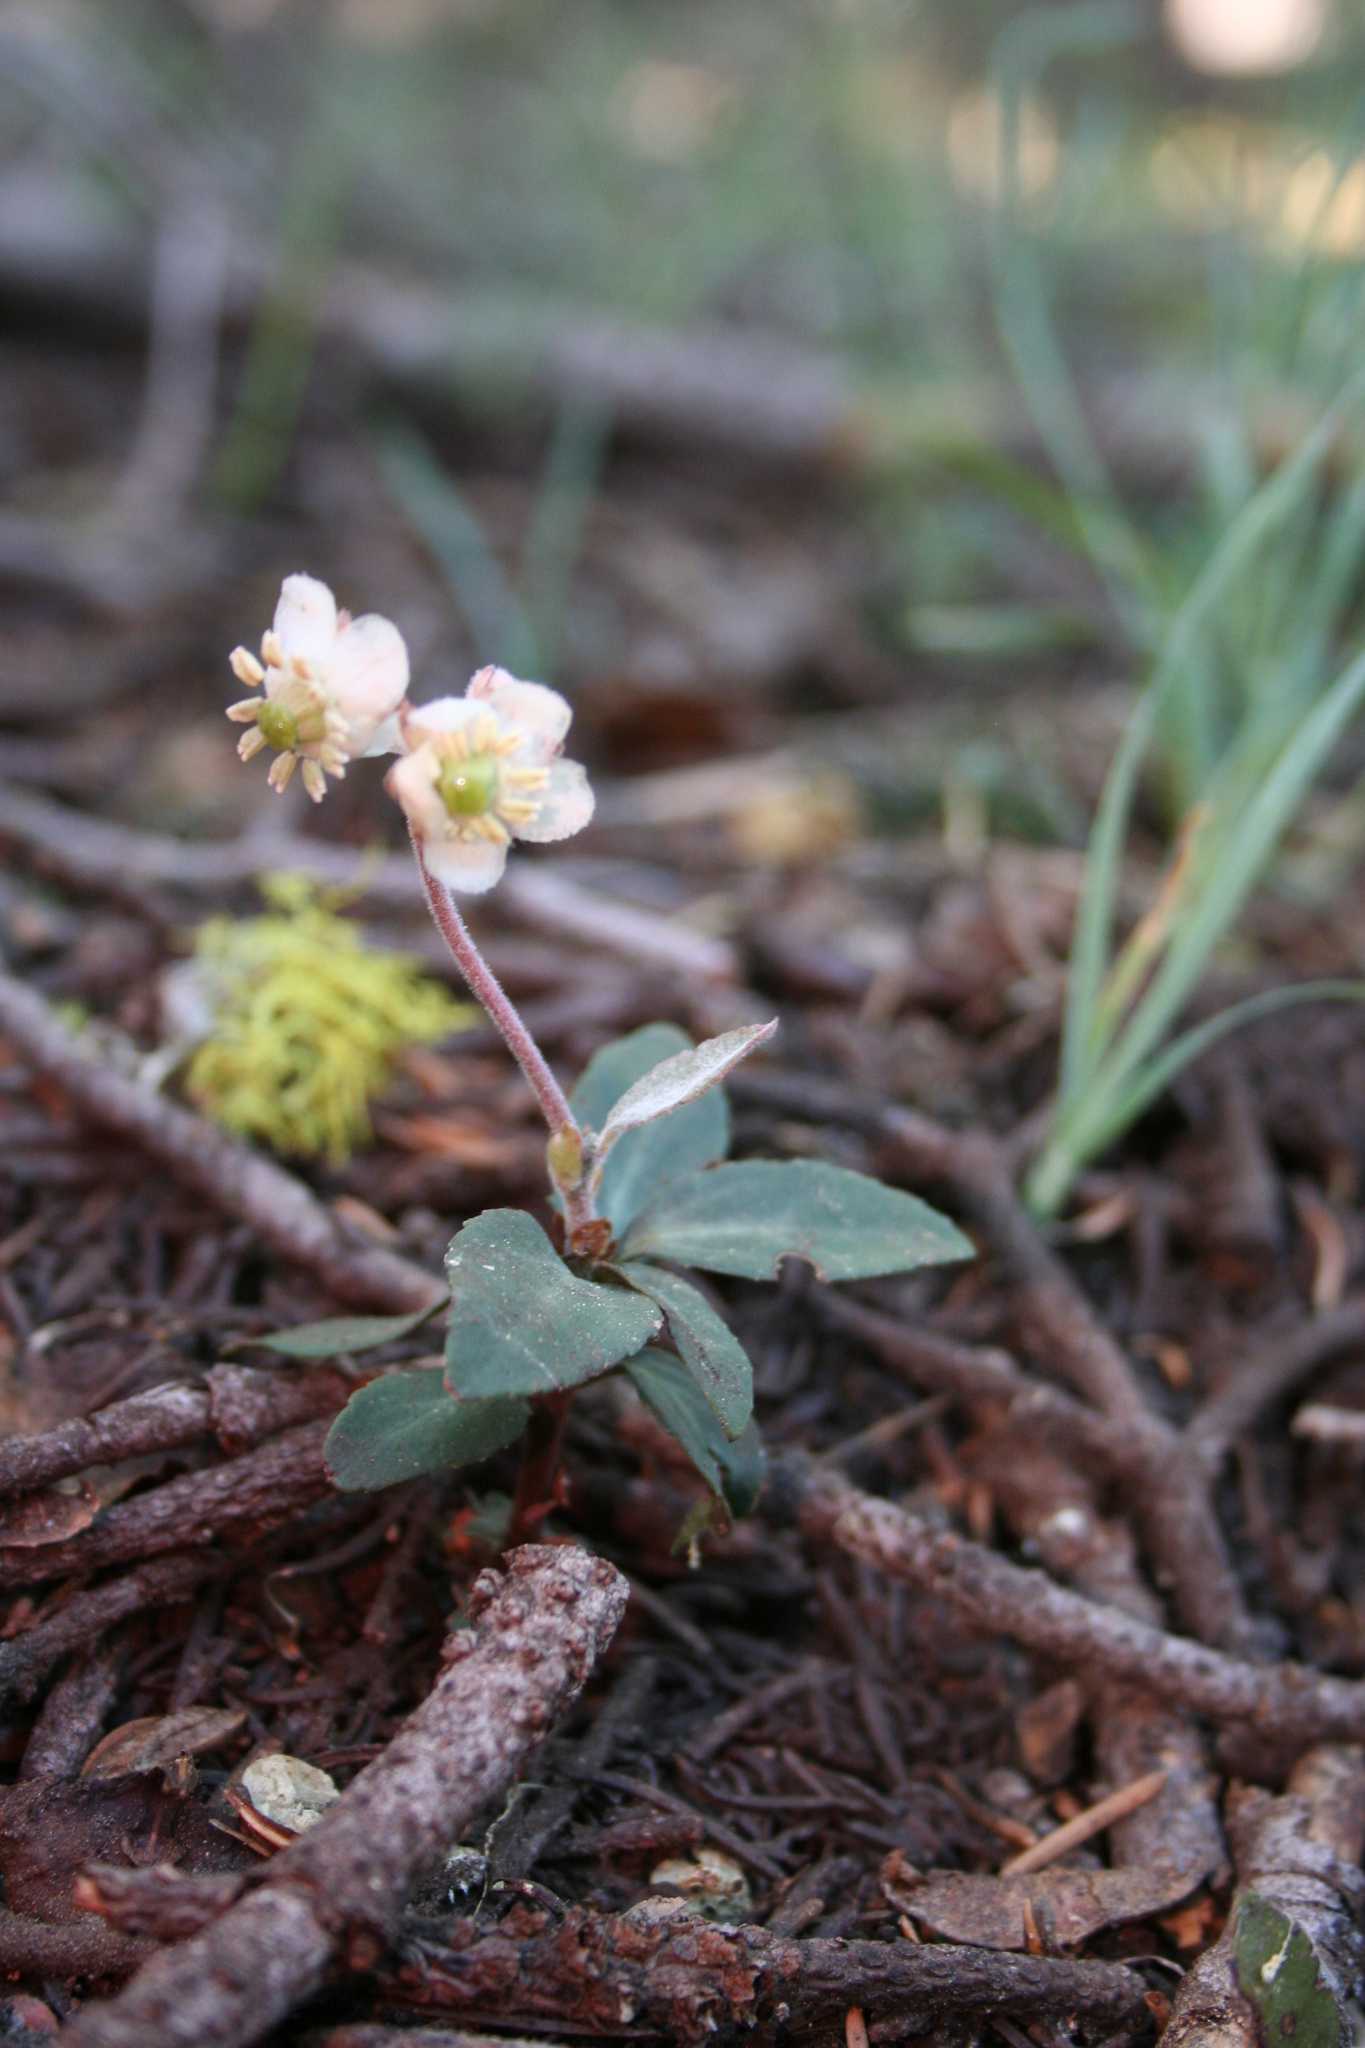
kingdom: Plantae
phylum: Tracheophyta
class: Magnoliopsida
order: Ericales
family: Ericaceae
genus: Chimaphila
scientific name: Chimaphila menziesii
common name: Menzies' pipsissewa
